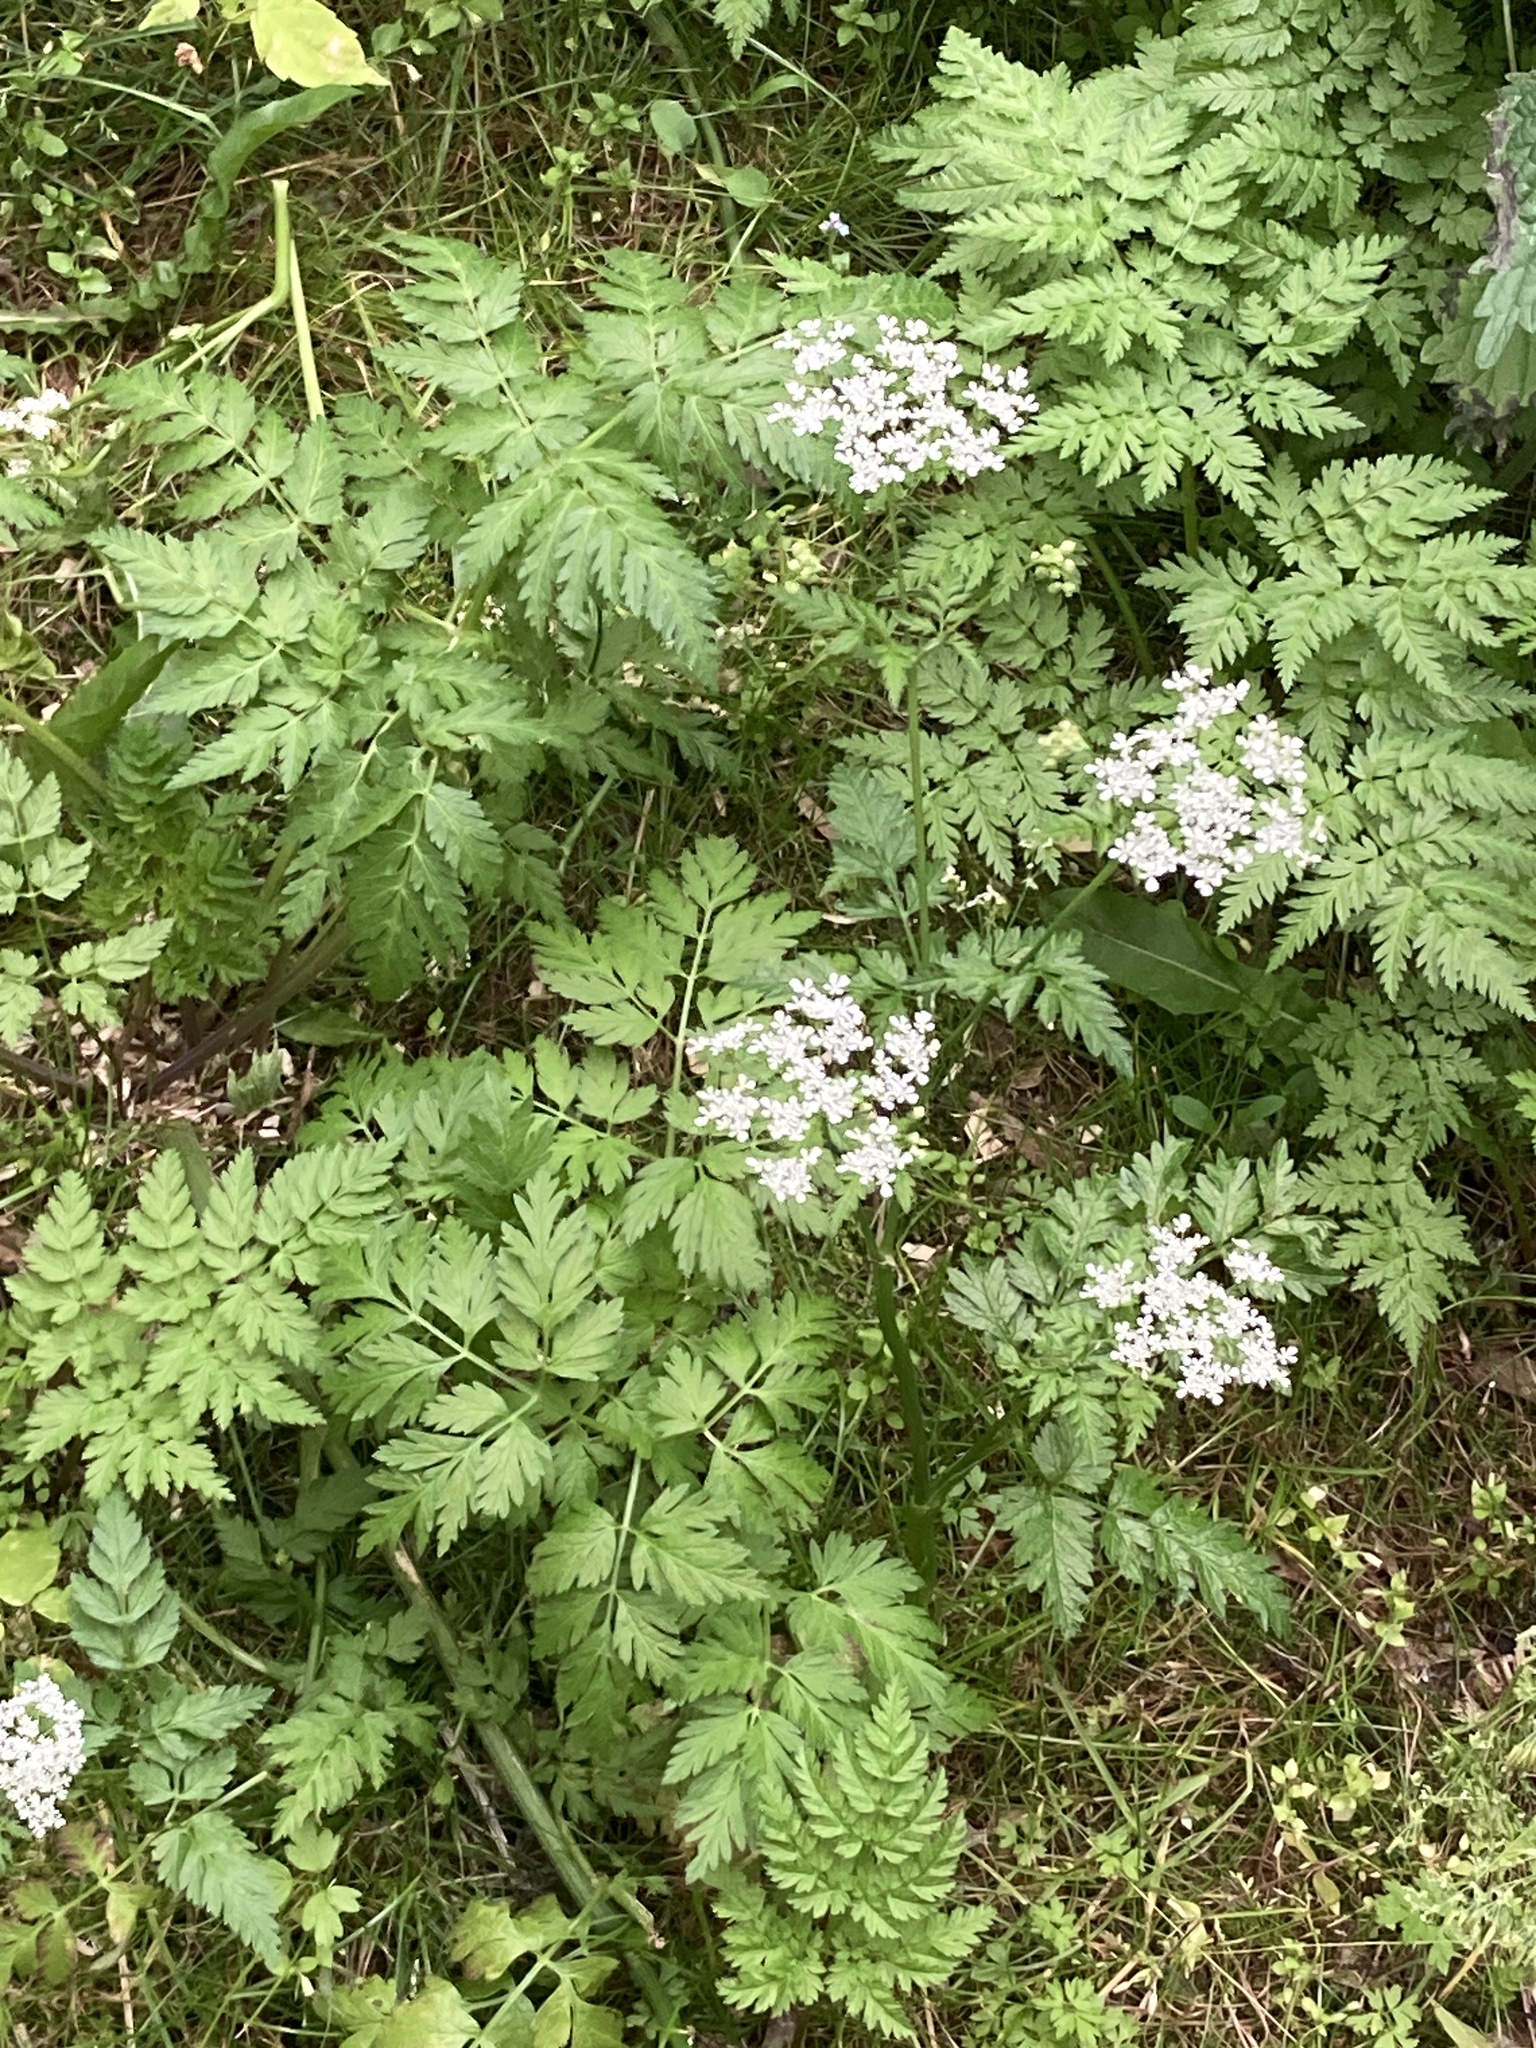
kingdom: Plantae
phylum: Tracheophyta
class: Magnoliopsida
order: Apiales
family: Apiaceae
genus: Anthriscus
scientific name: Anthriscus sylvestris
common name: Cow parsley
